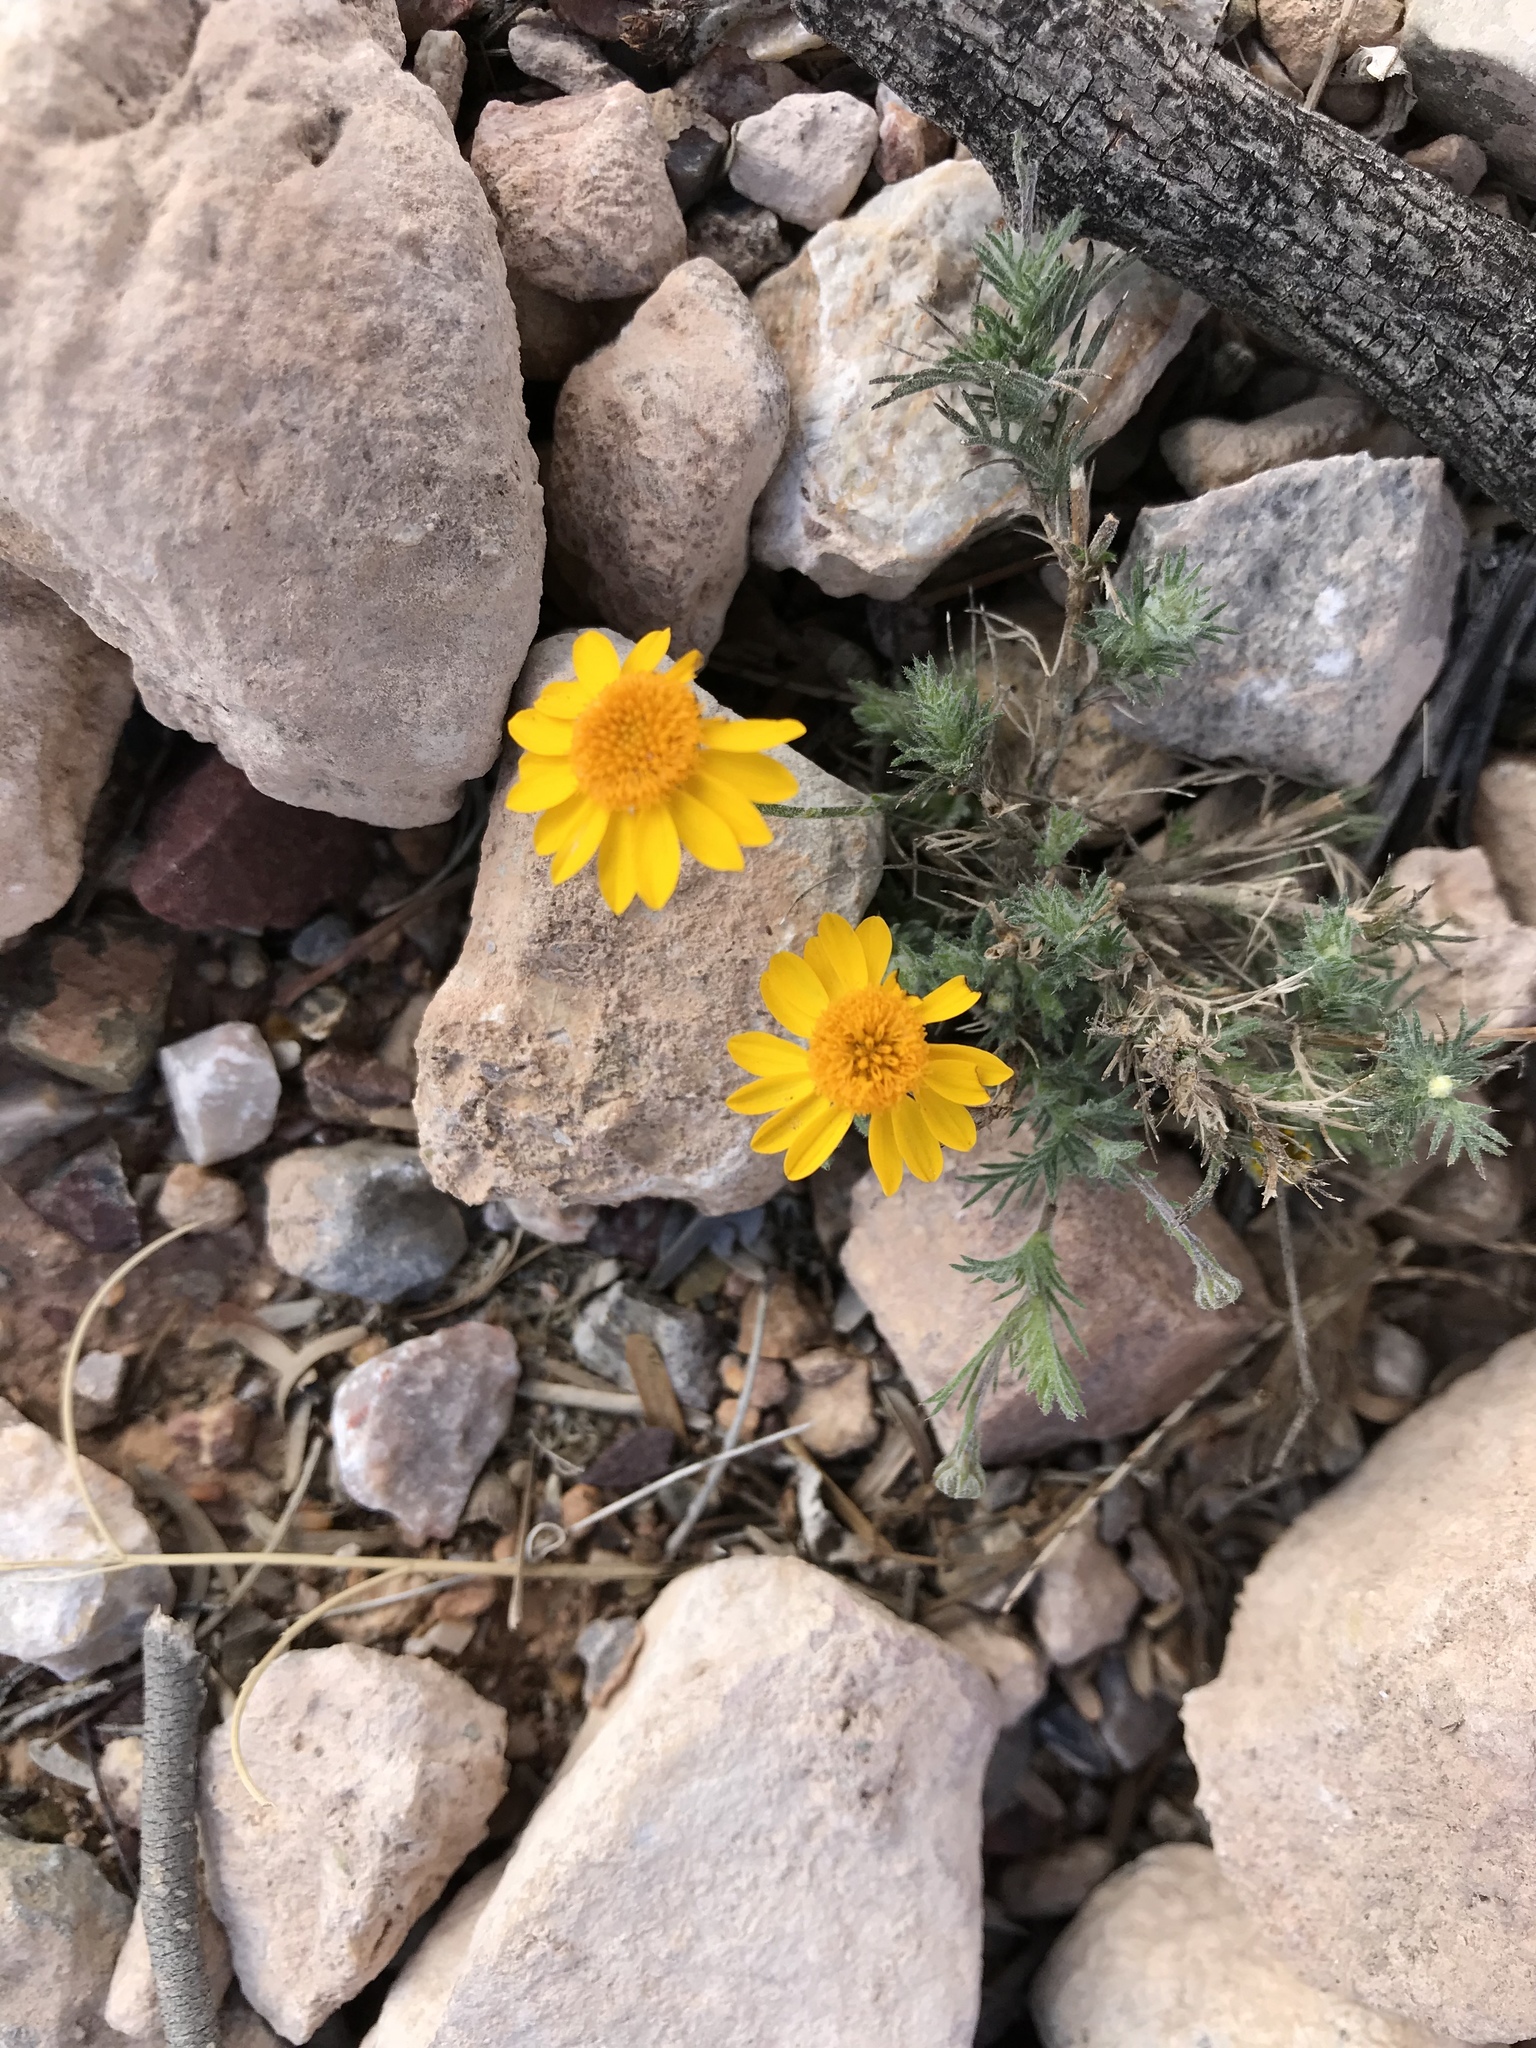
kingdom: Plantae
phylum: Tracheophyta
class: Magnoliopsida
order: Asterales
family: Asteraceae
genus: Thymophylla
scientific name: Thymophylla pentachaeta
